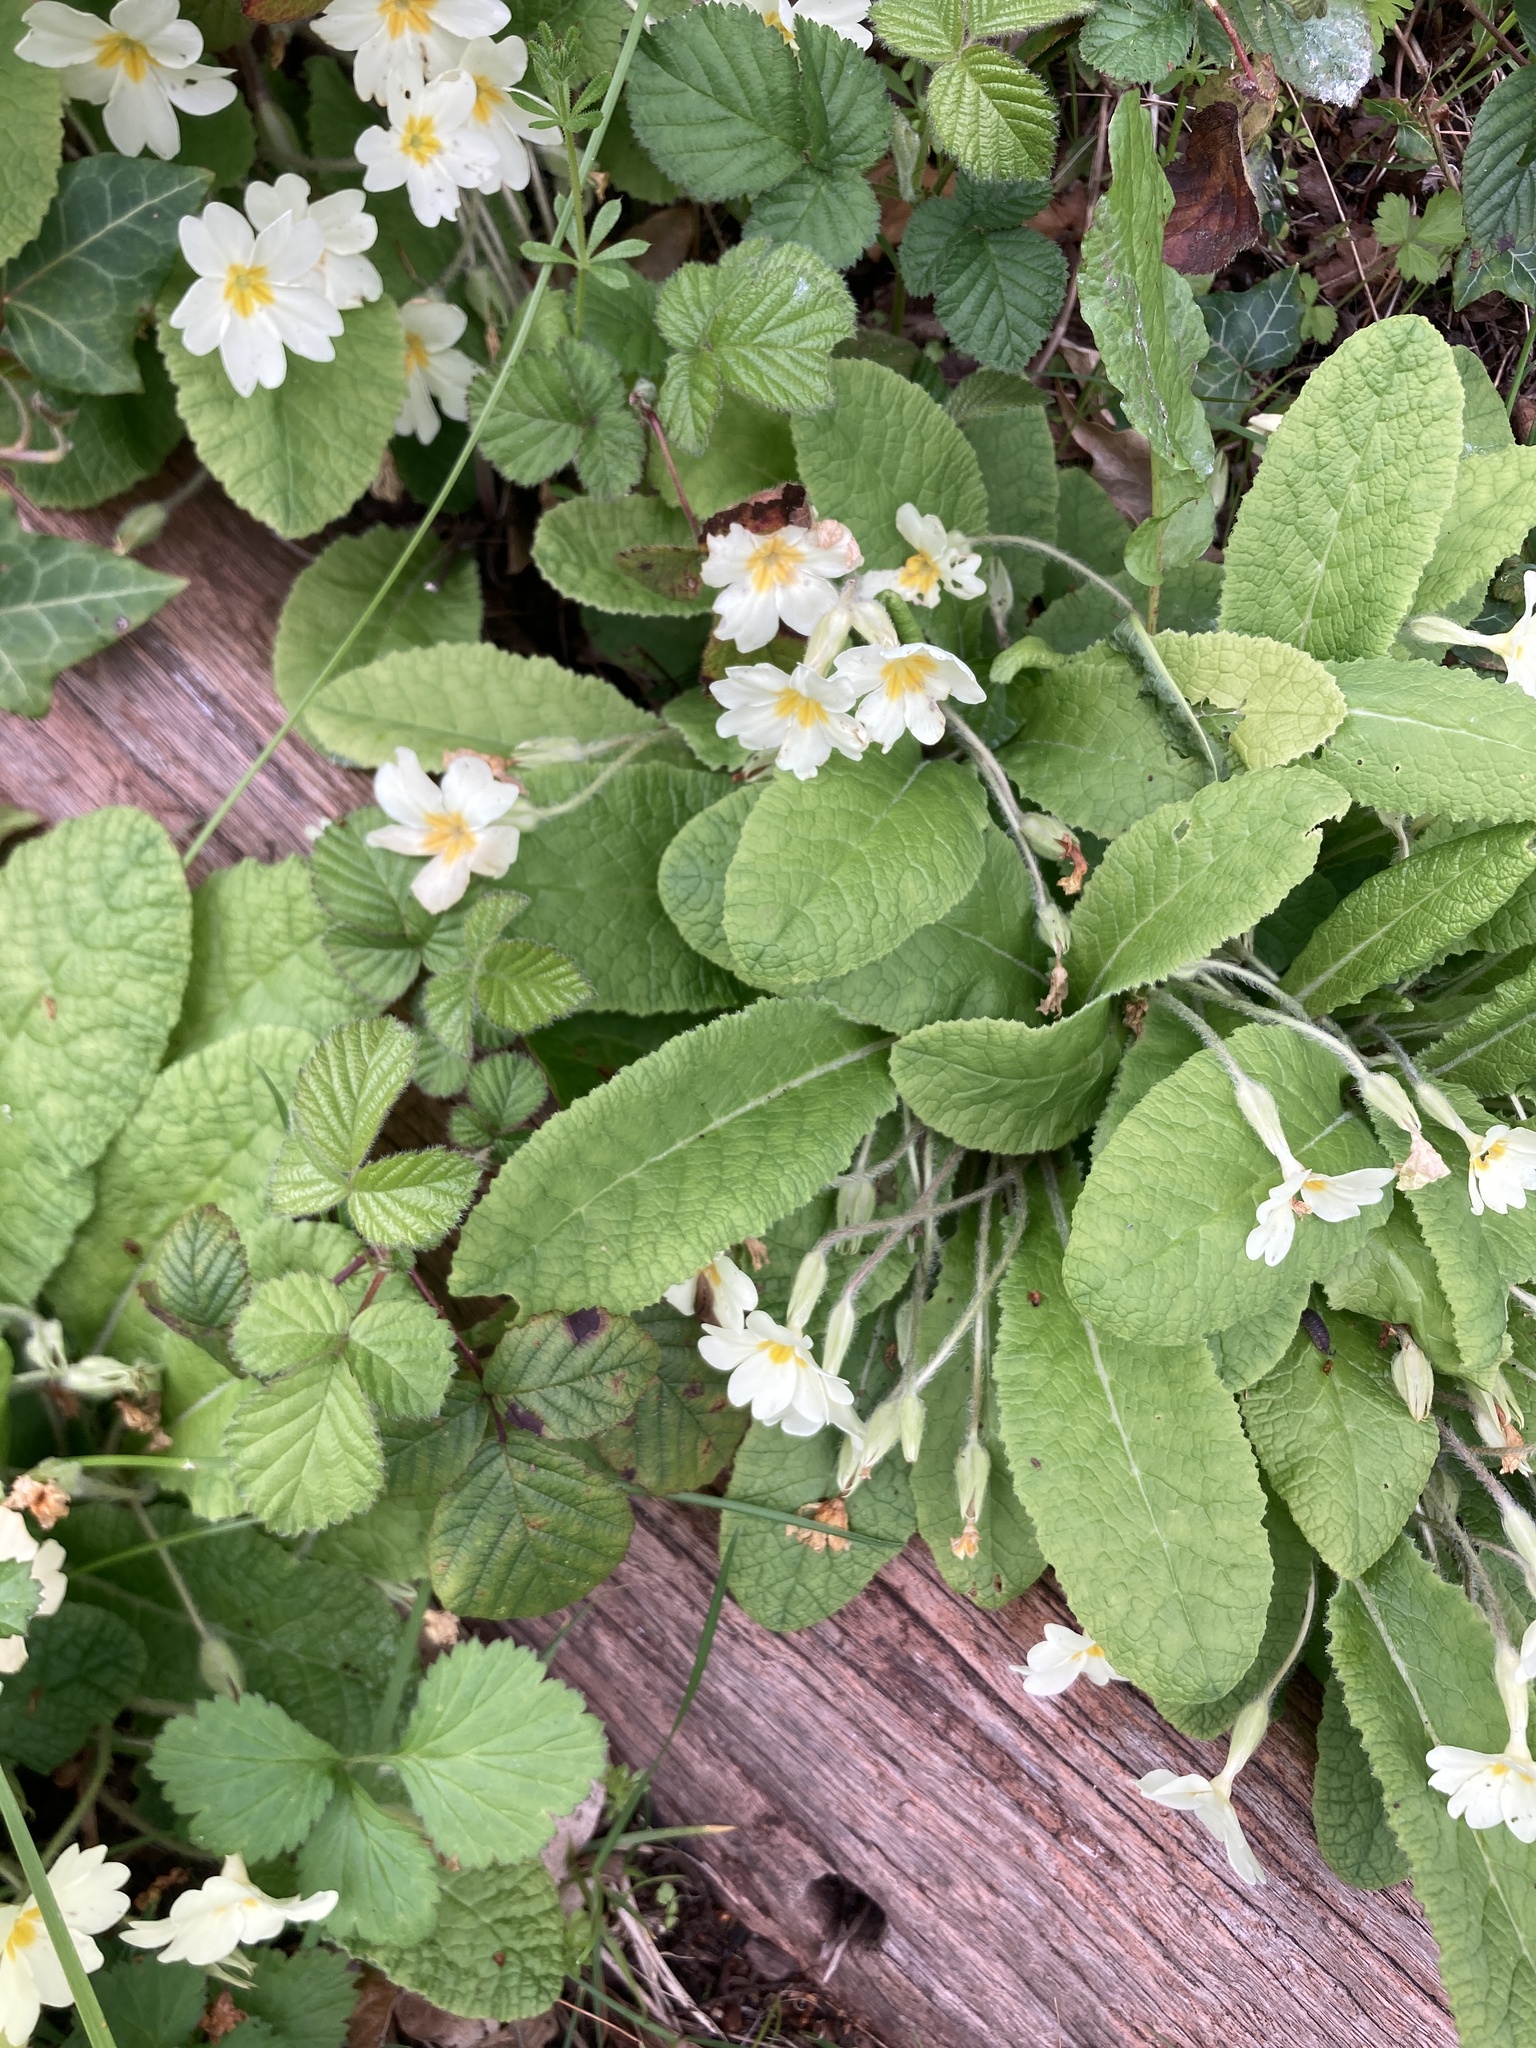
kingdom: Plantae
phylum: Tracheophyta
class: Magnoliopsida
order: Ericales
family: Primulaceae
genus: Primula
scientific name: Primula vulgaris
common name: Primrose
